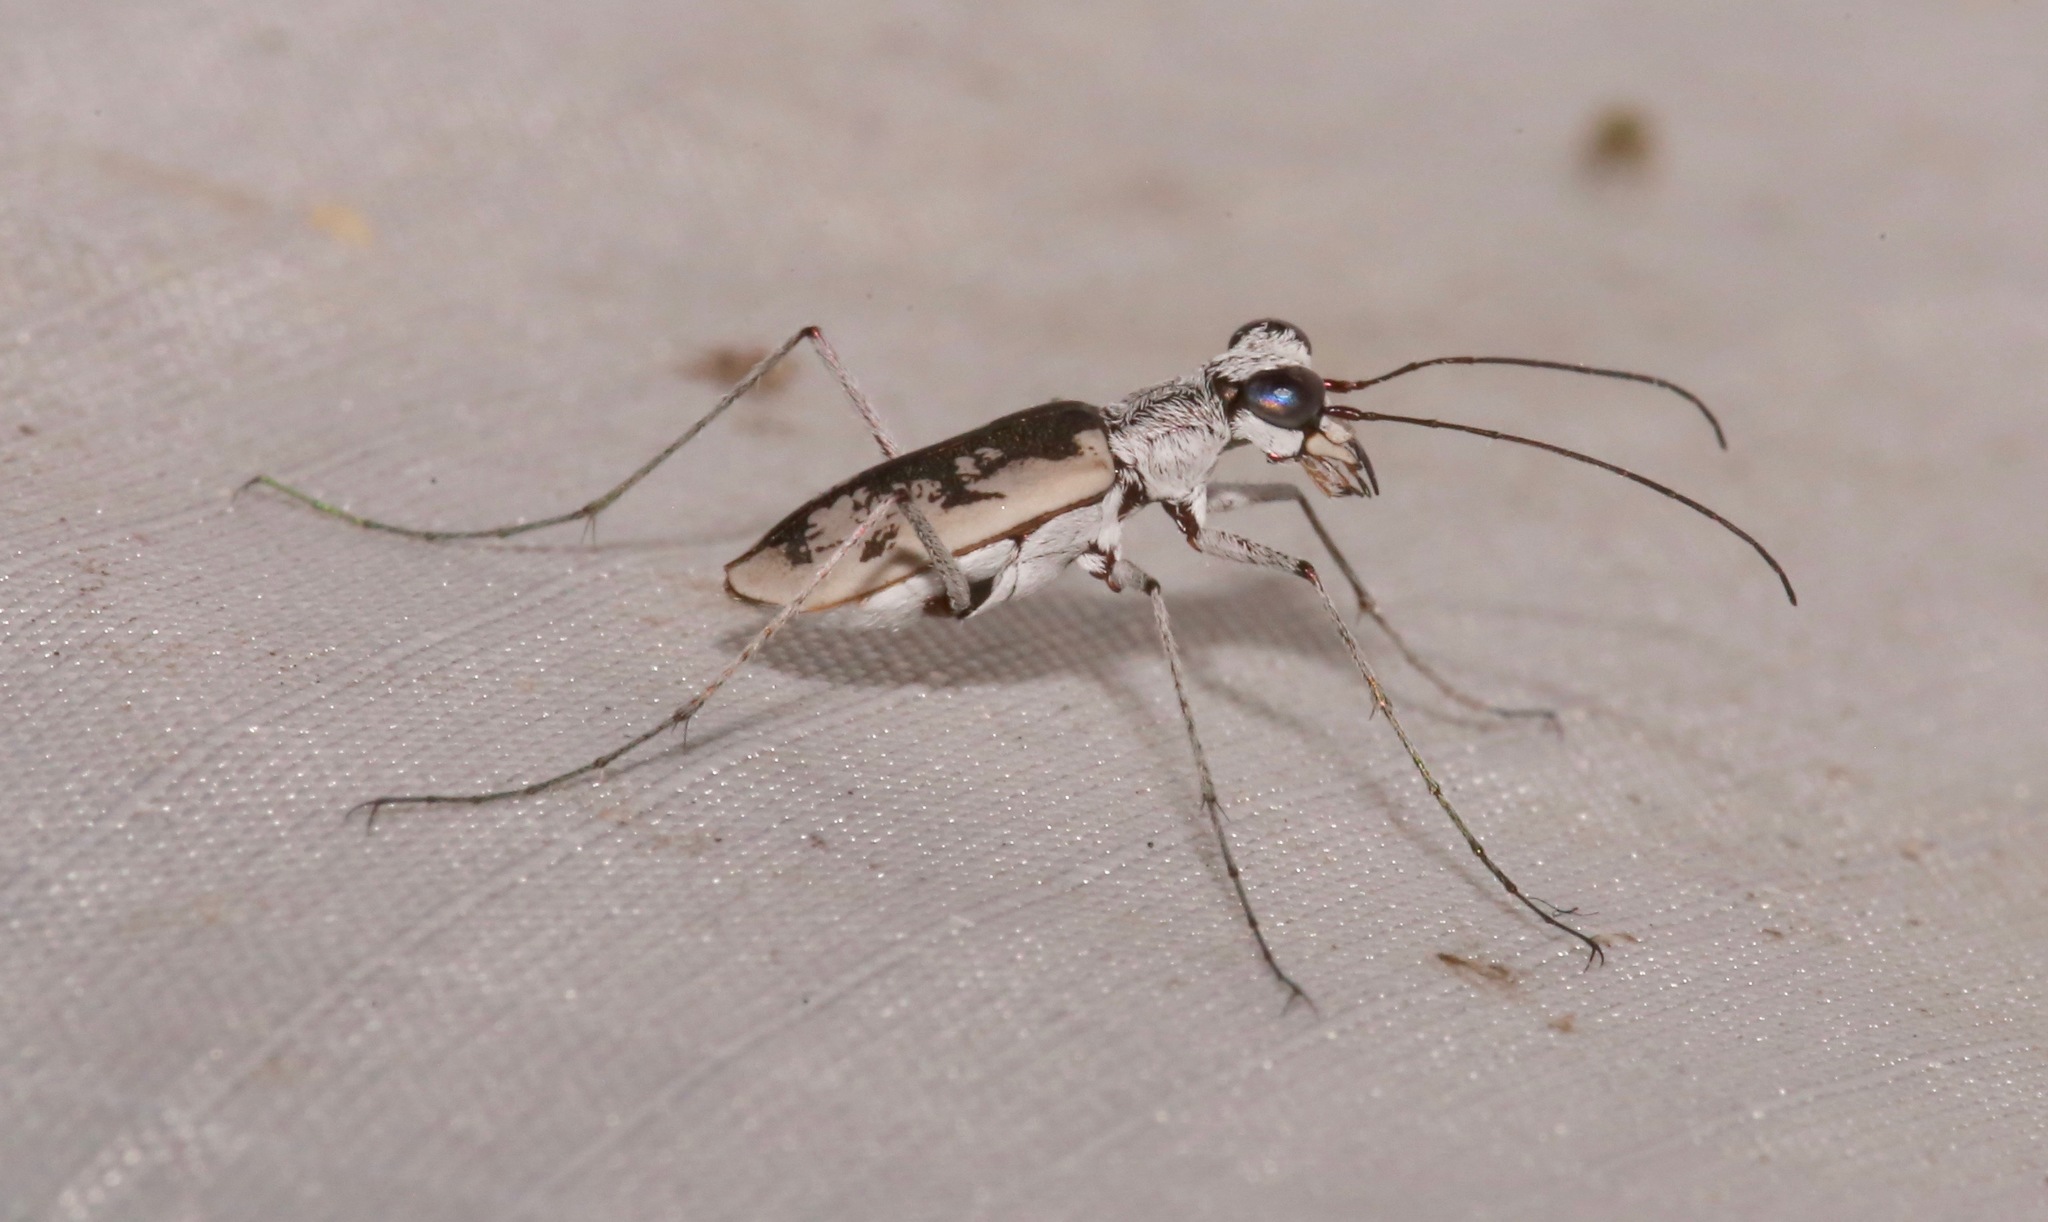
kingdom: Animalia
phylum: Arthropoda
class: Insecta
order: Coleoptera
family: Carabidae
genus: Ellipsoptera
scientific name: Ellipsoptera hirtilabris
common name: Moustached tiger beetle
